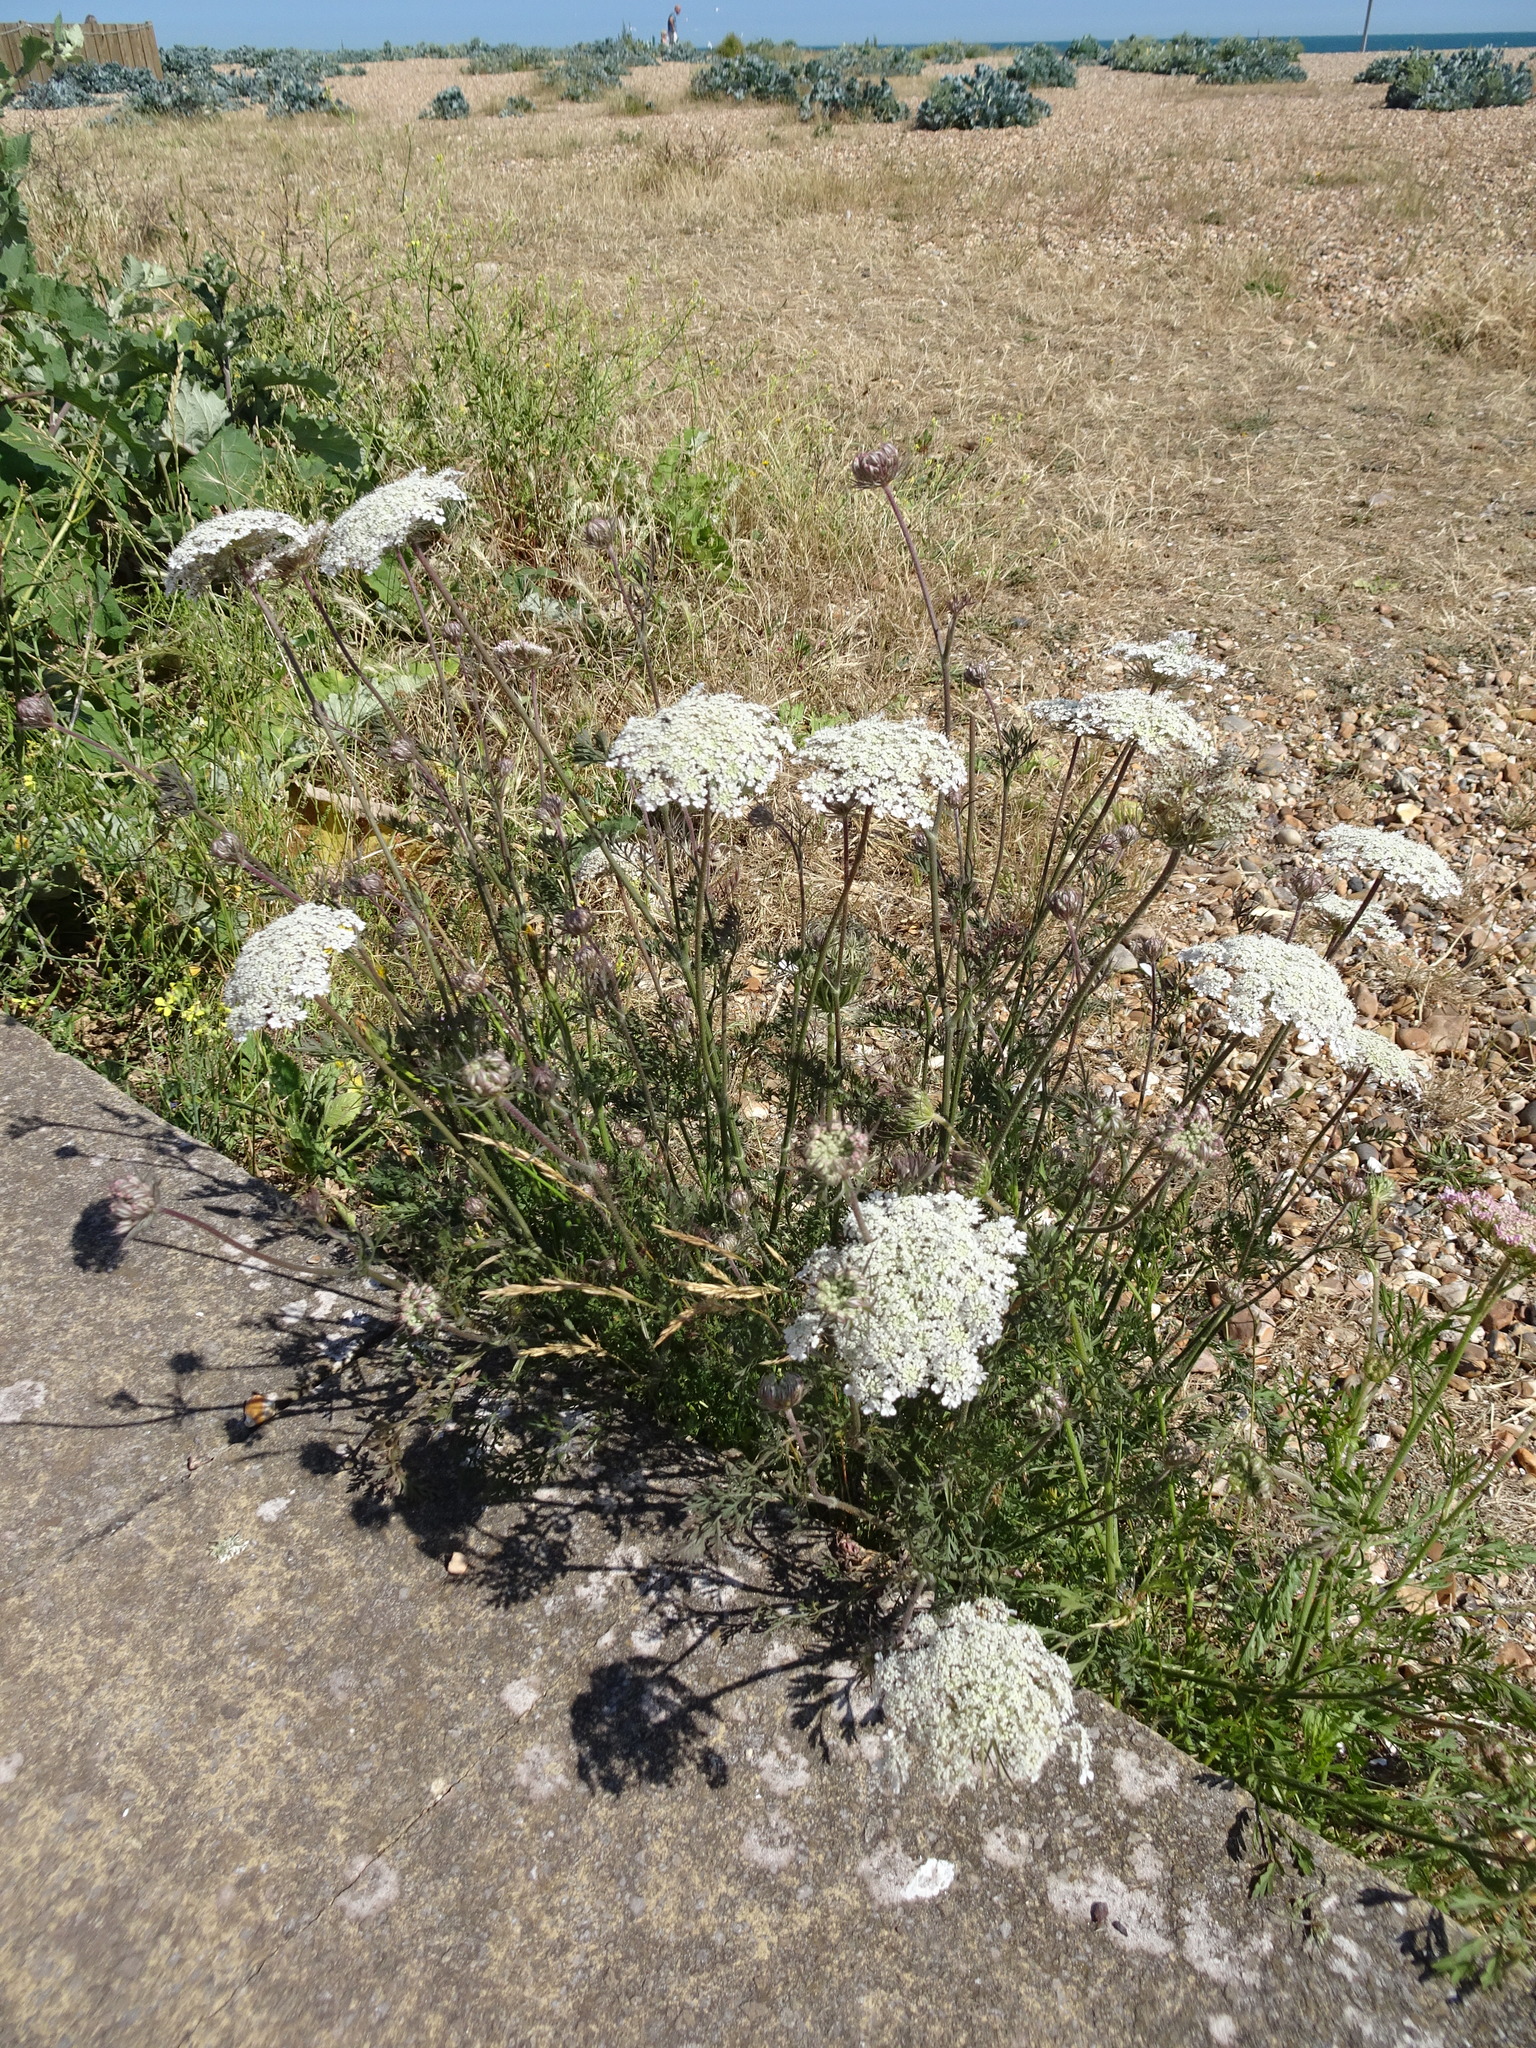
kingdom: Plantae
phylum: Tracheophyta
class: Magnoliopsida
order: Apiales
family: Apiaceae
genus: Daucus
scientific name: Daucus carota
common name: Wild carrot
